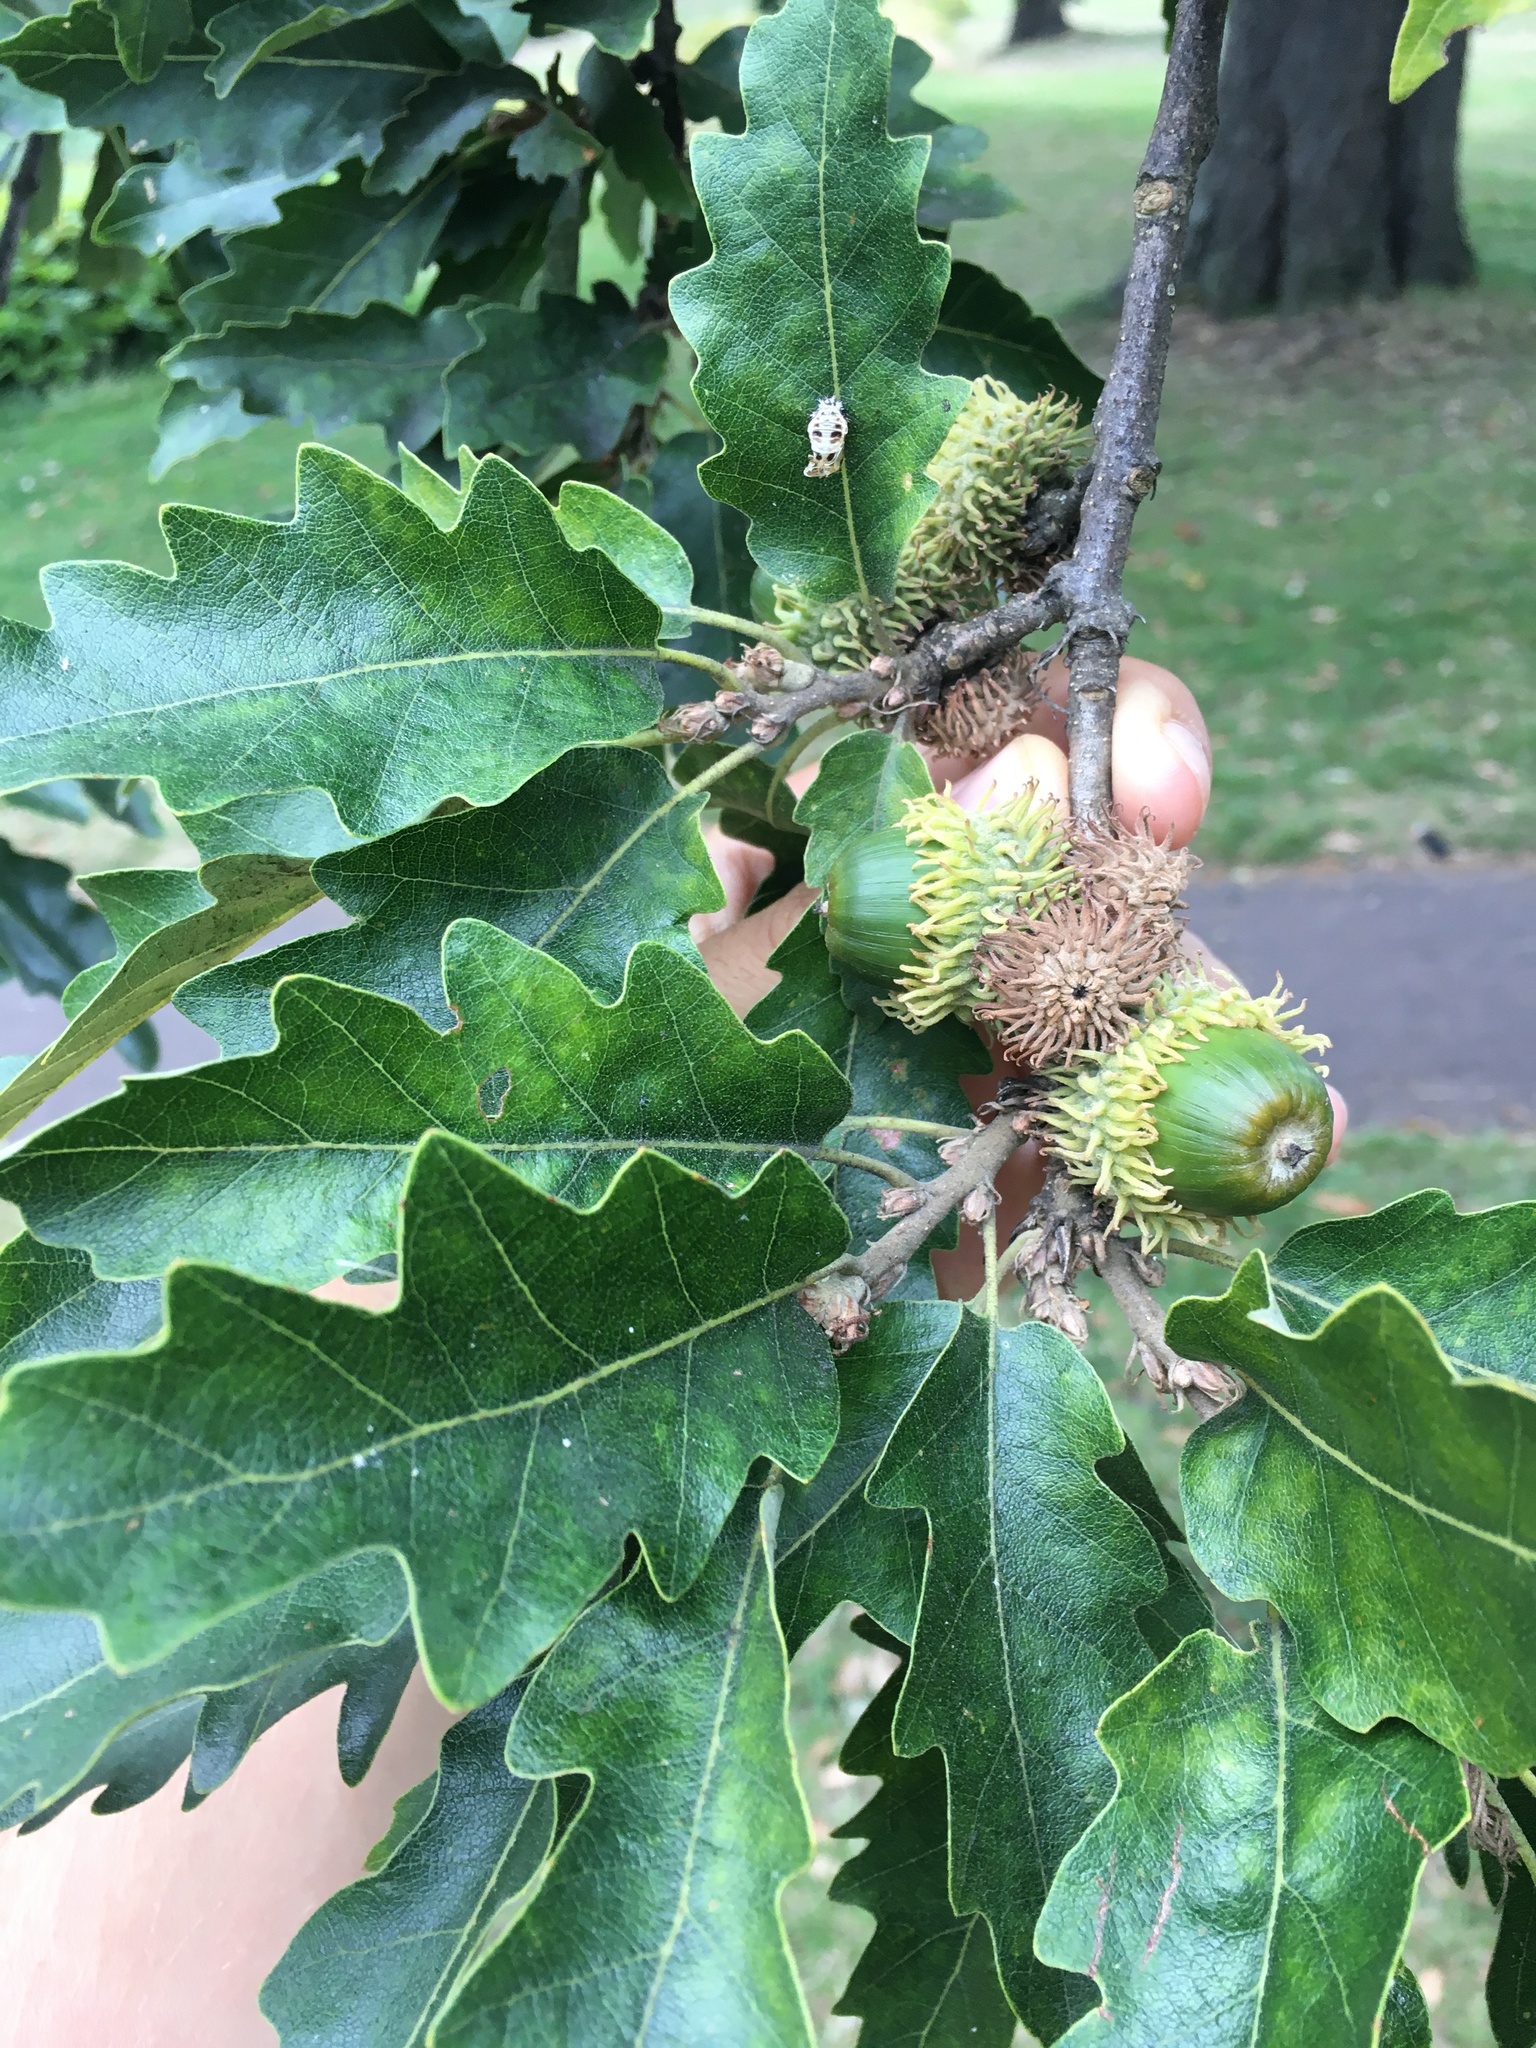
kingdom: Plantae
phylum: Tracheophyta
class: Magnoliopsida
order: Fagales
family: Fagaceae
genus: Quercus
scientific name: Quercus cerris
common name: Turkey oak
